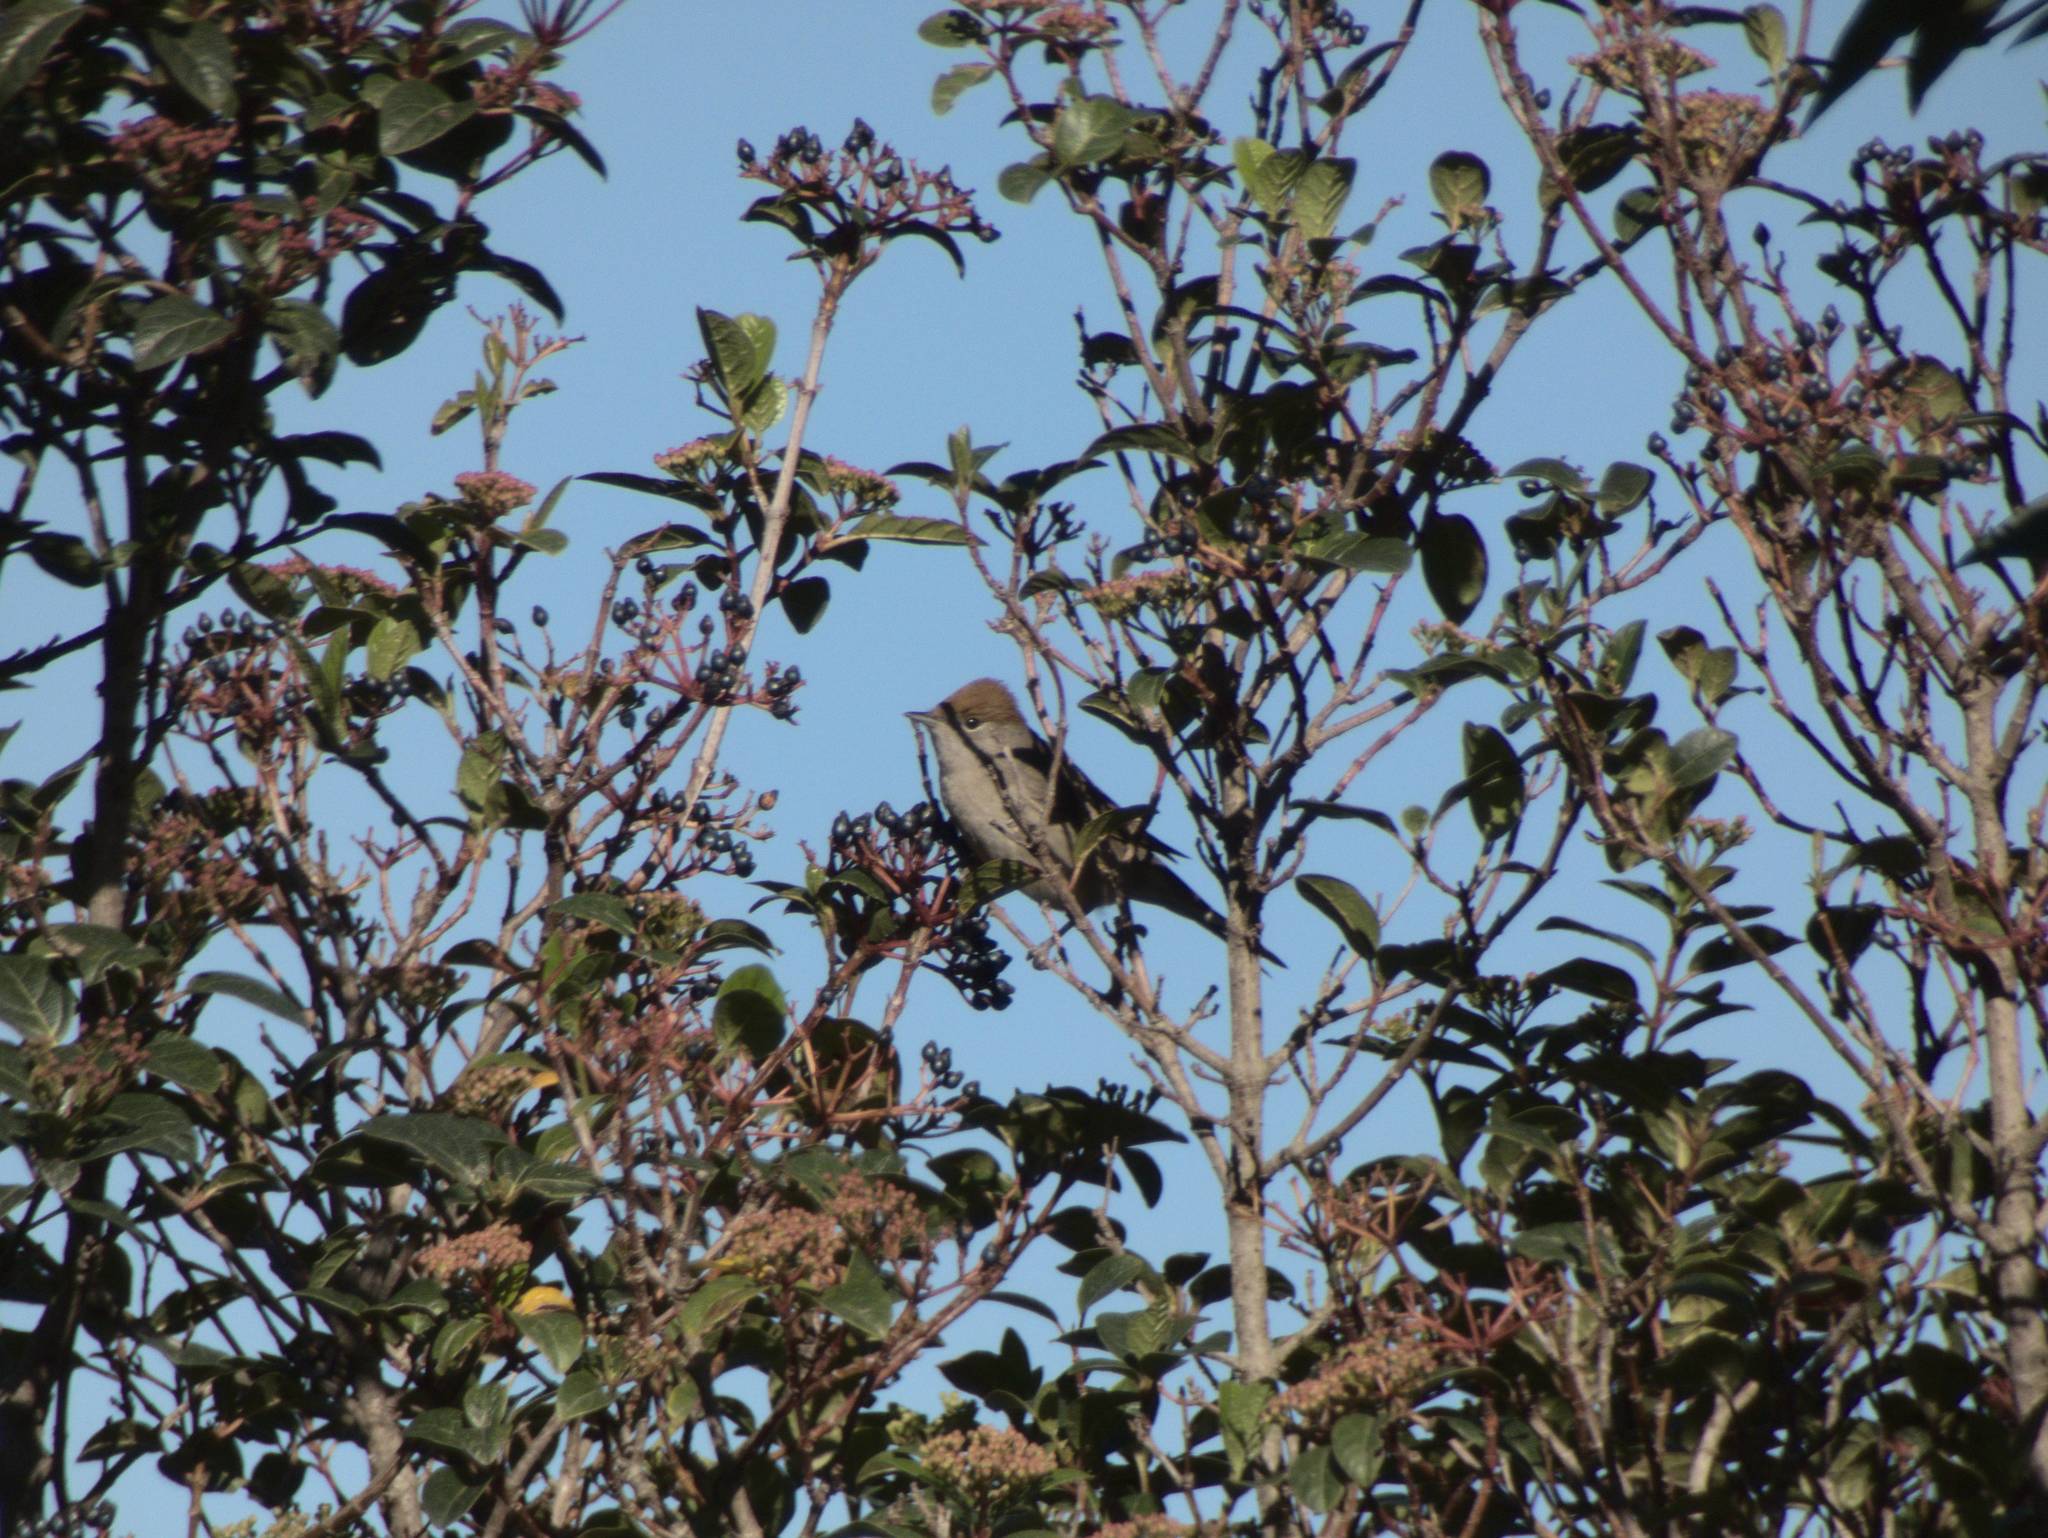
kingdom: Animalia
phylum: Chordata
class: Aves
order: Passeriformes
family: Sylviidae
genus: Sylvia
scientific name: Sylvia atricapilla
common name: Eurasian blackcap
